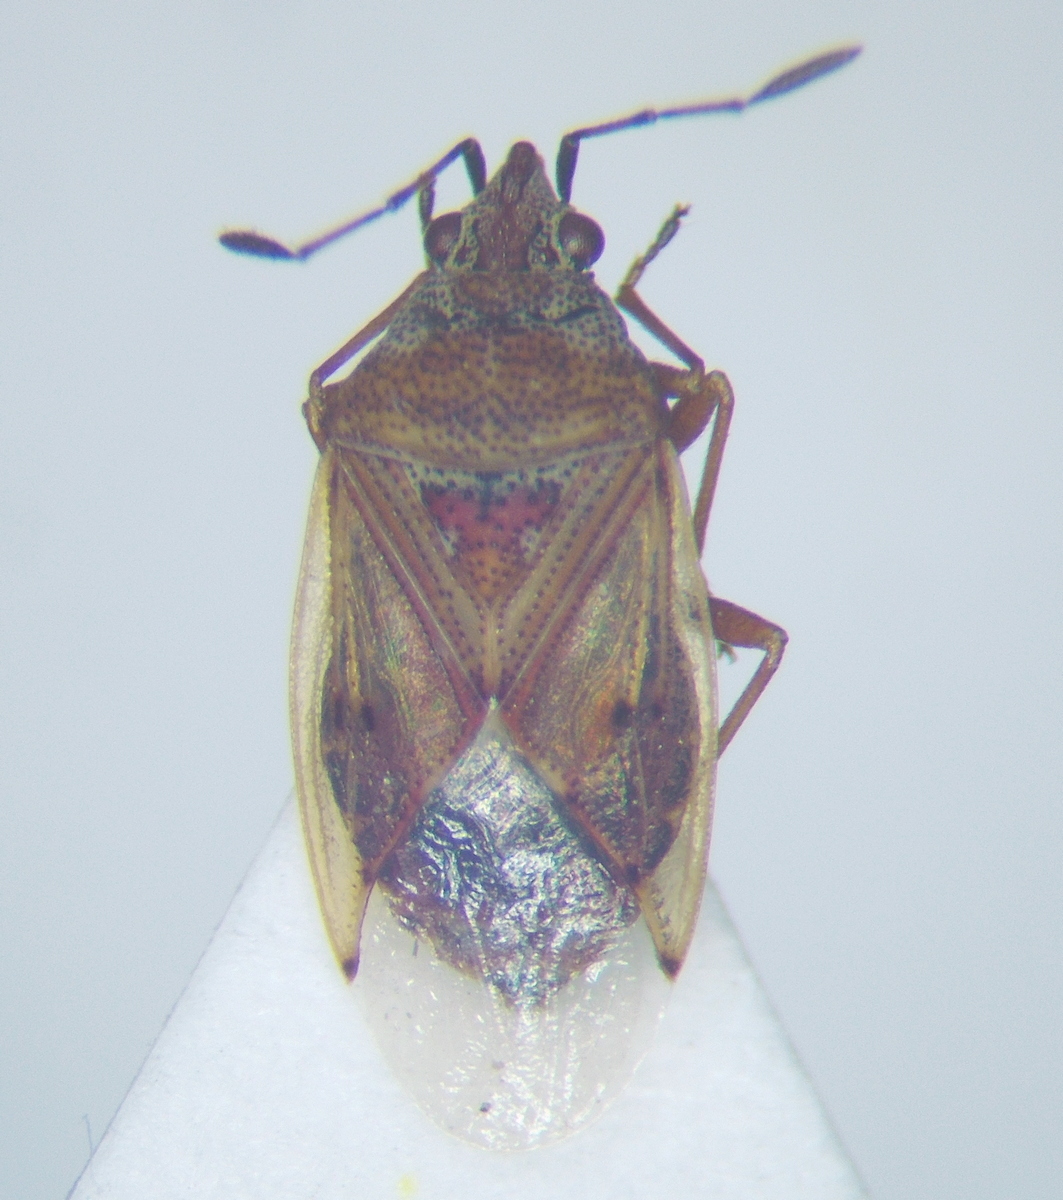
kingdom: Animalia
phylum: Arthropoda
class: Insecta
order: Hemiptera
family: Lygaeidae
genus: Kleidocerys
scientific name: Kleidocerys resedae
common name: Birch catkin bug
